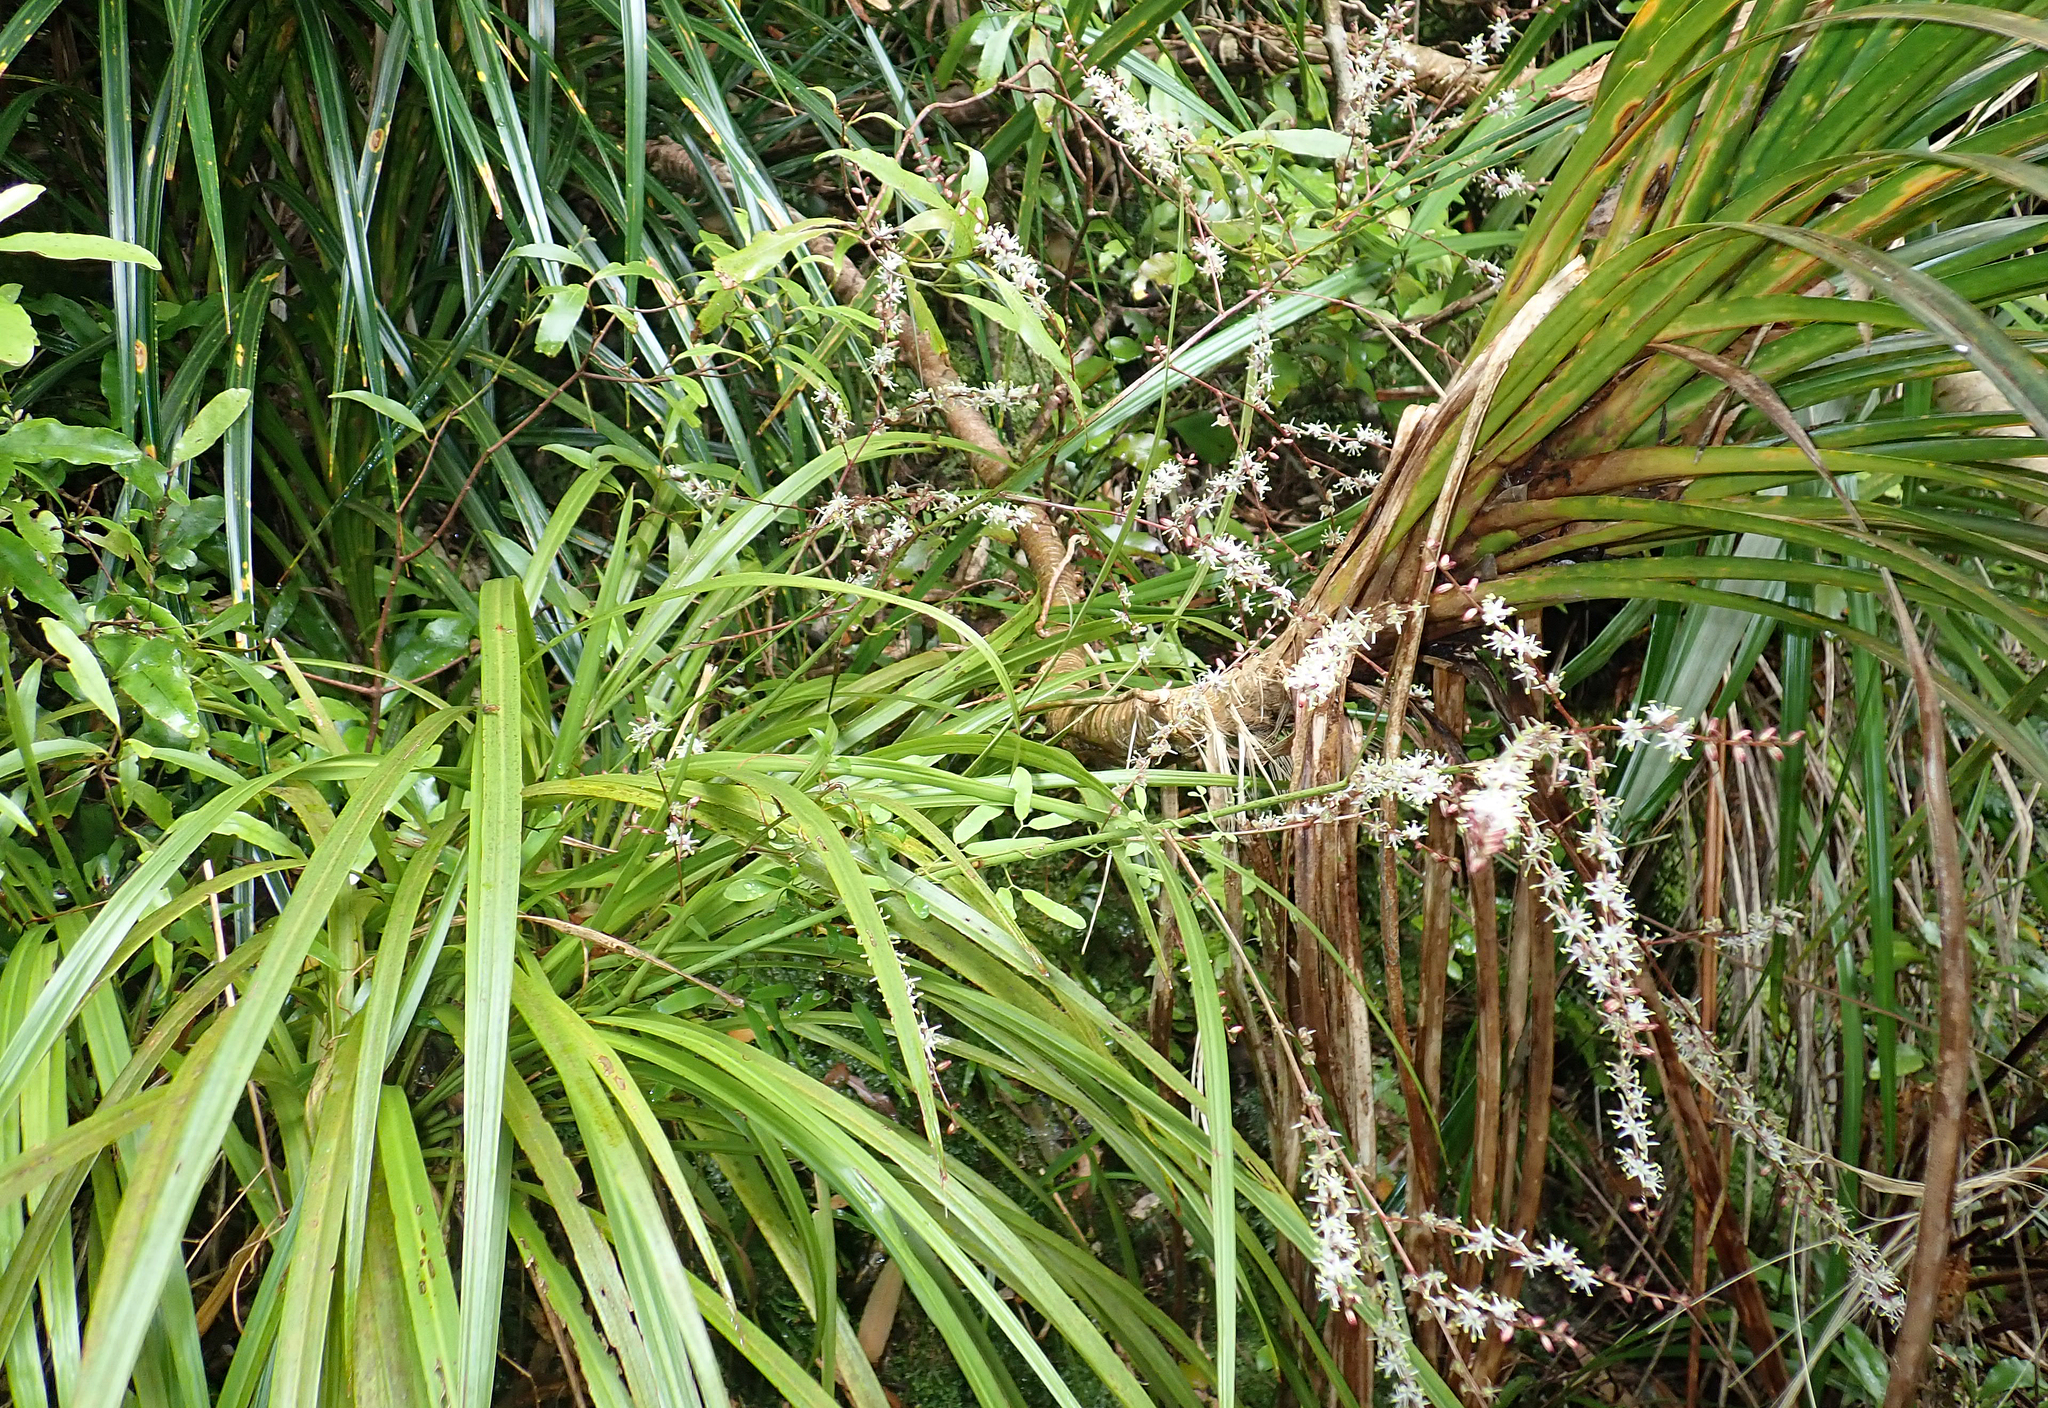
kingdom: Plantae
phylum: Tracheophyta
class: Liliopsida
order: Asparagales
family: Asparagaceae
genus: Cordyline
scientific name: Cordyline pumilio
